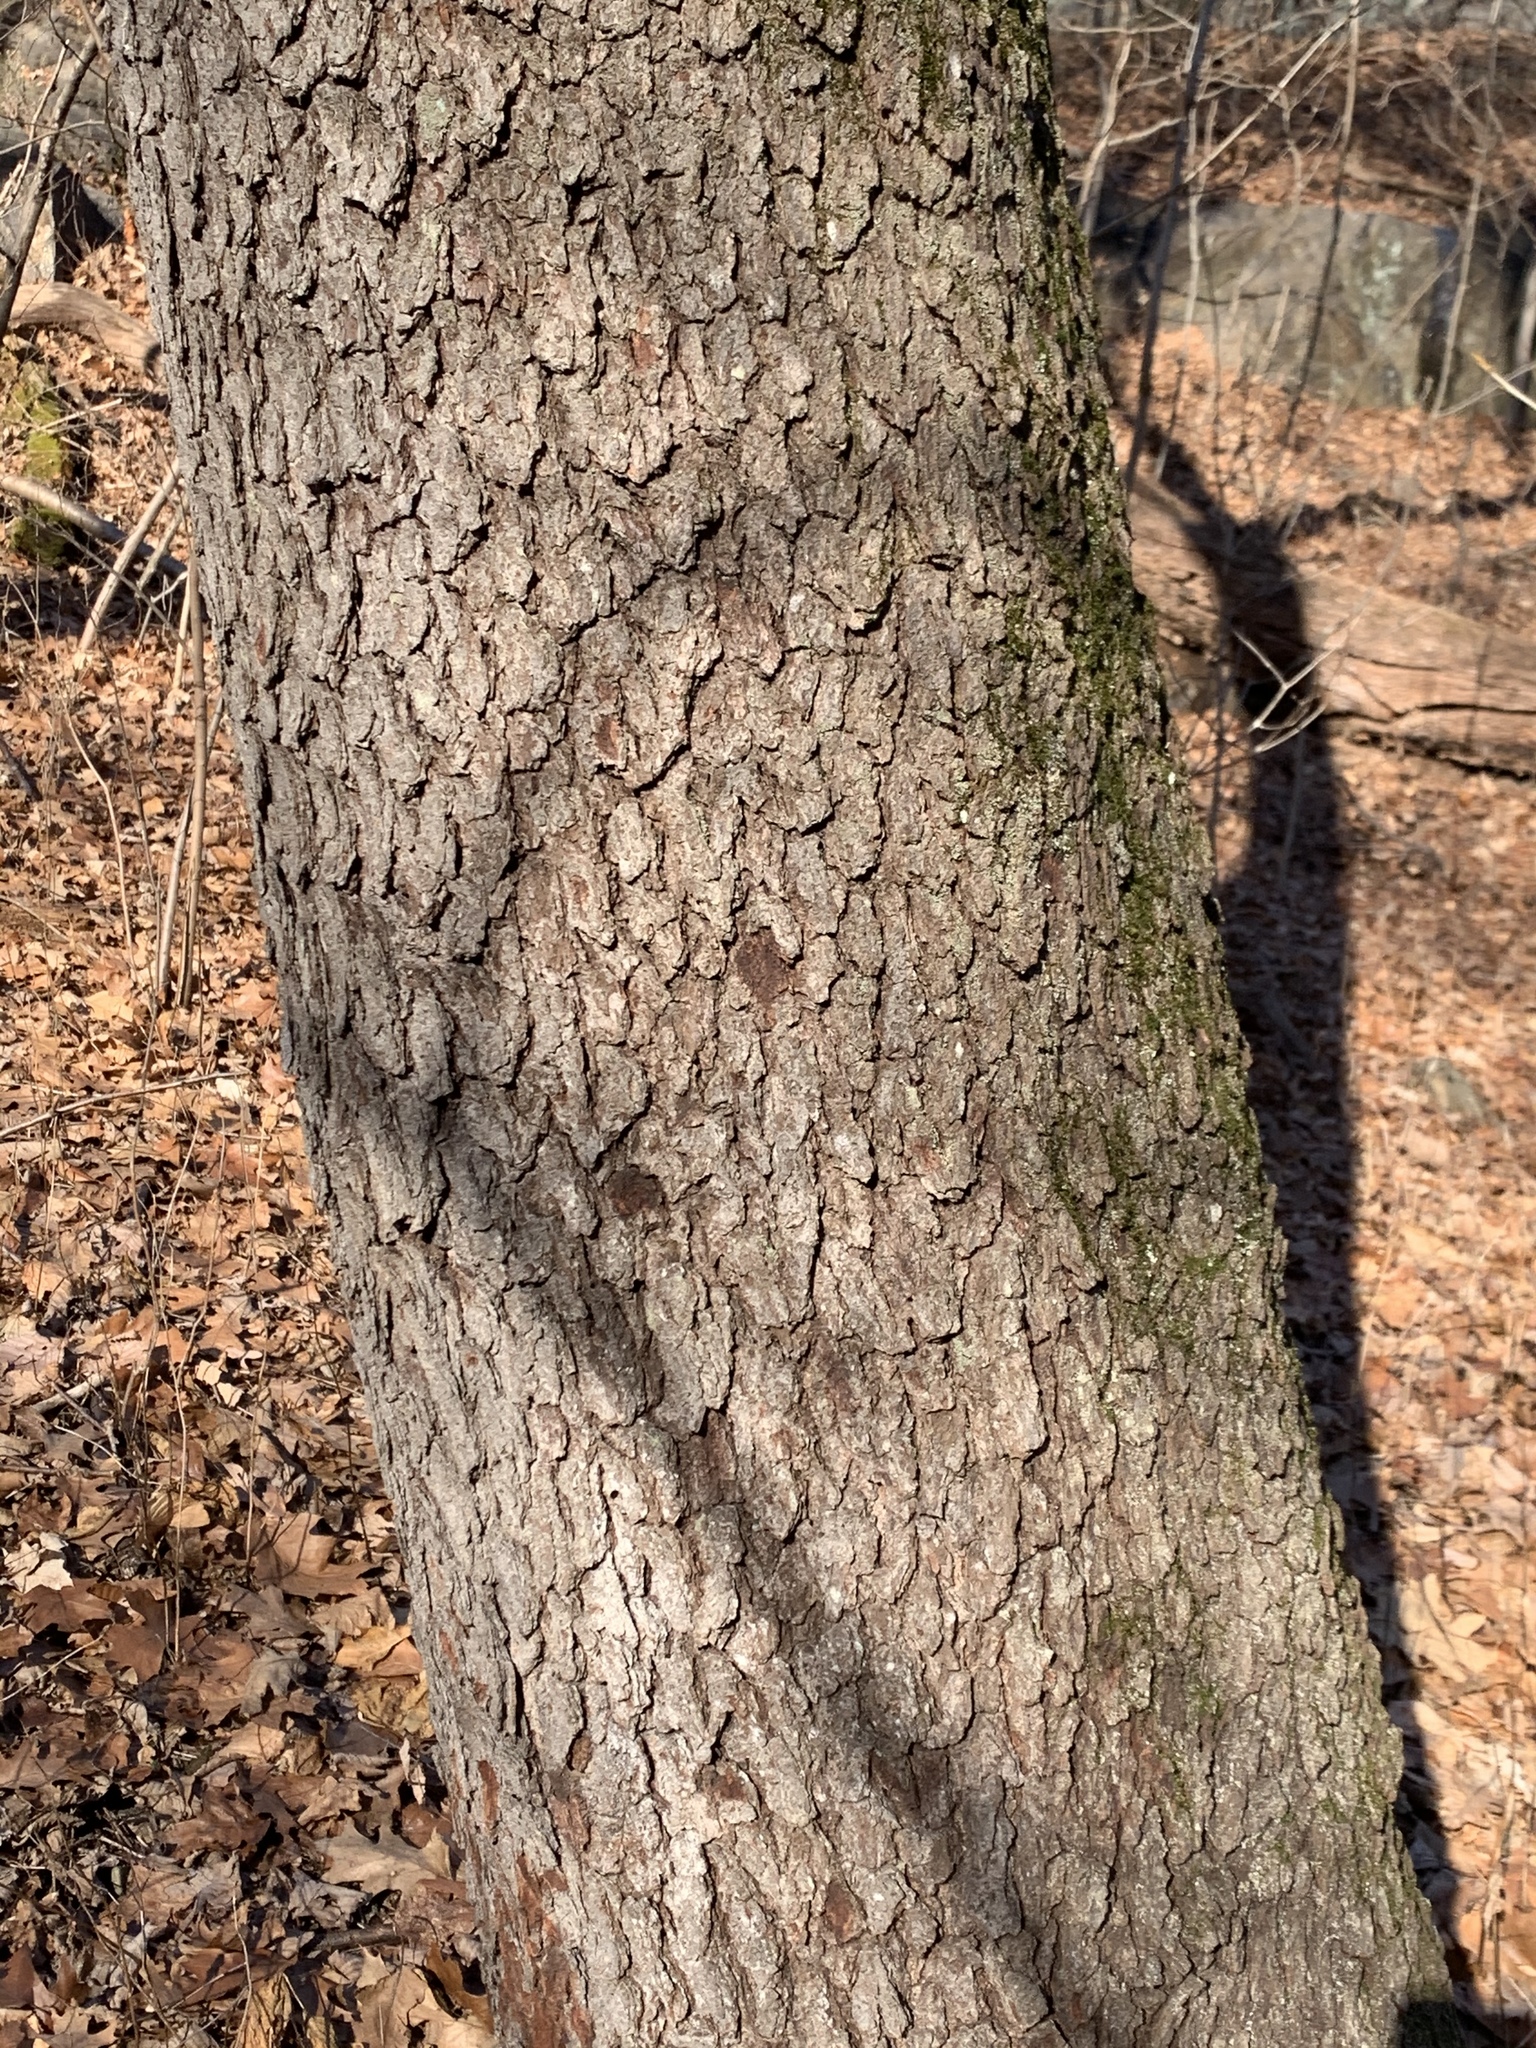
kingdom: Plantae
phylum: Tracheophyta
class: Magnoliopsida
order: Rosales
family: Rosaceae
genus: Prunus
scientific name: Prunus serotina
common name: Black cherry
